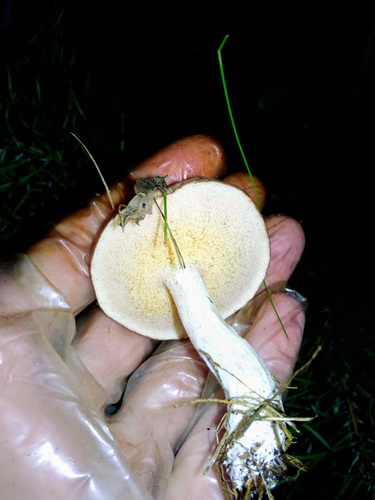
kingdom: Fungi
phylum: Basidiomycota
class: Agaricomycetes
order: Boletales
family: Suillaceae
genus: Suillus
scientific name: Suillus placidus
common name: Slippery white bolete
